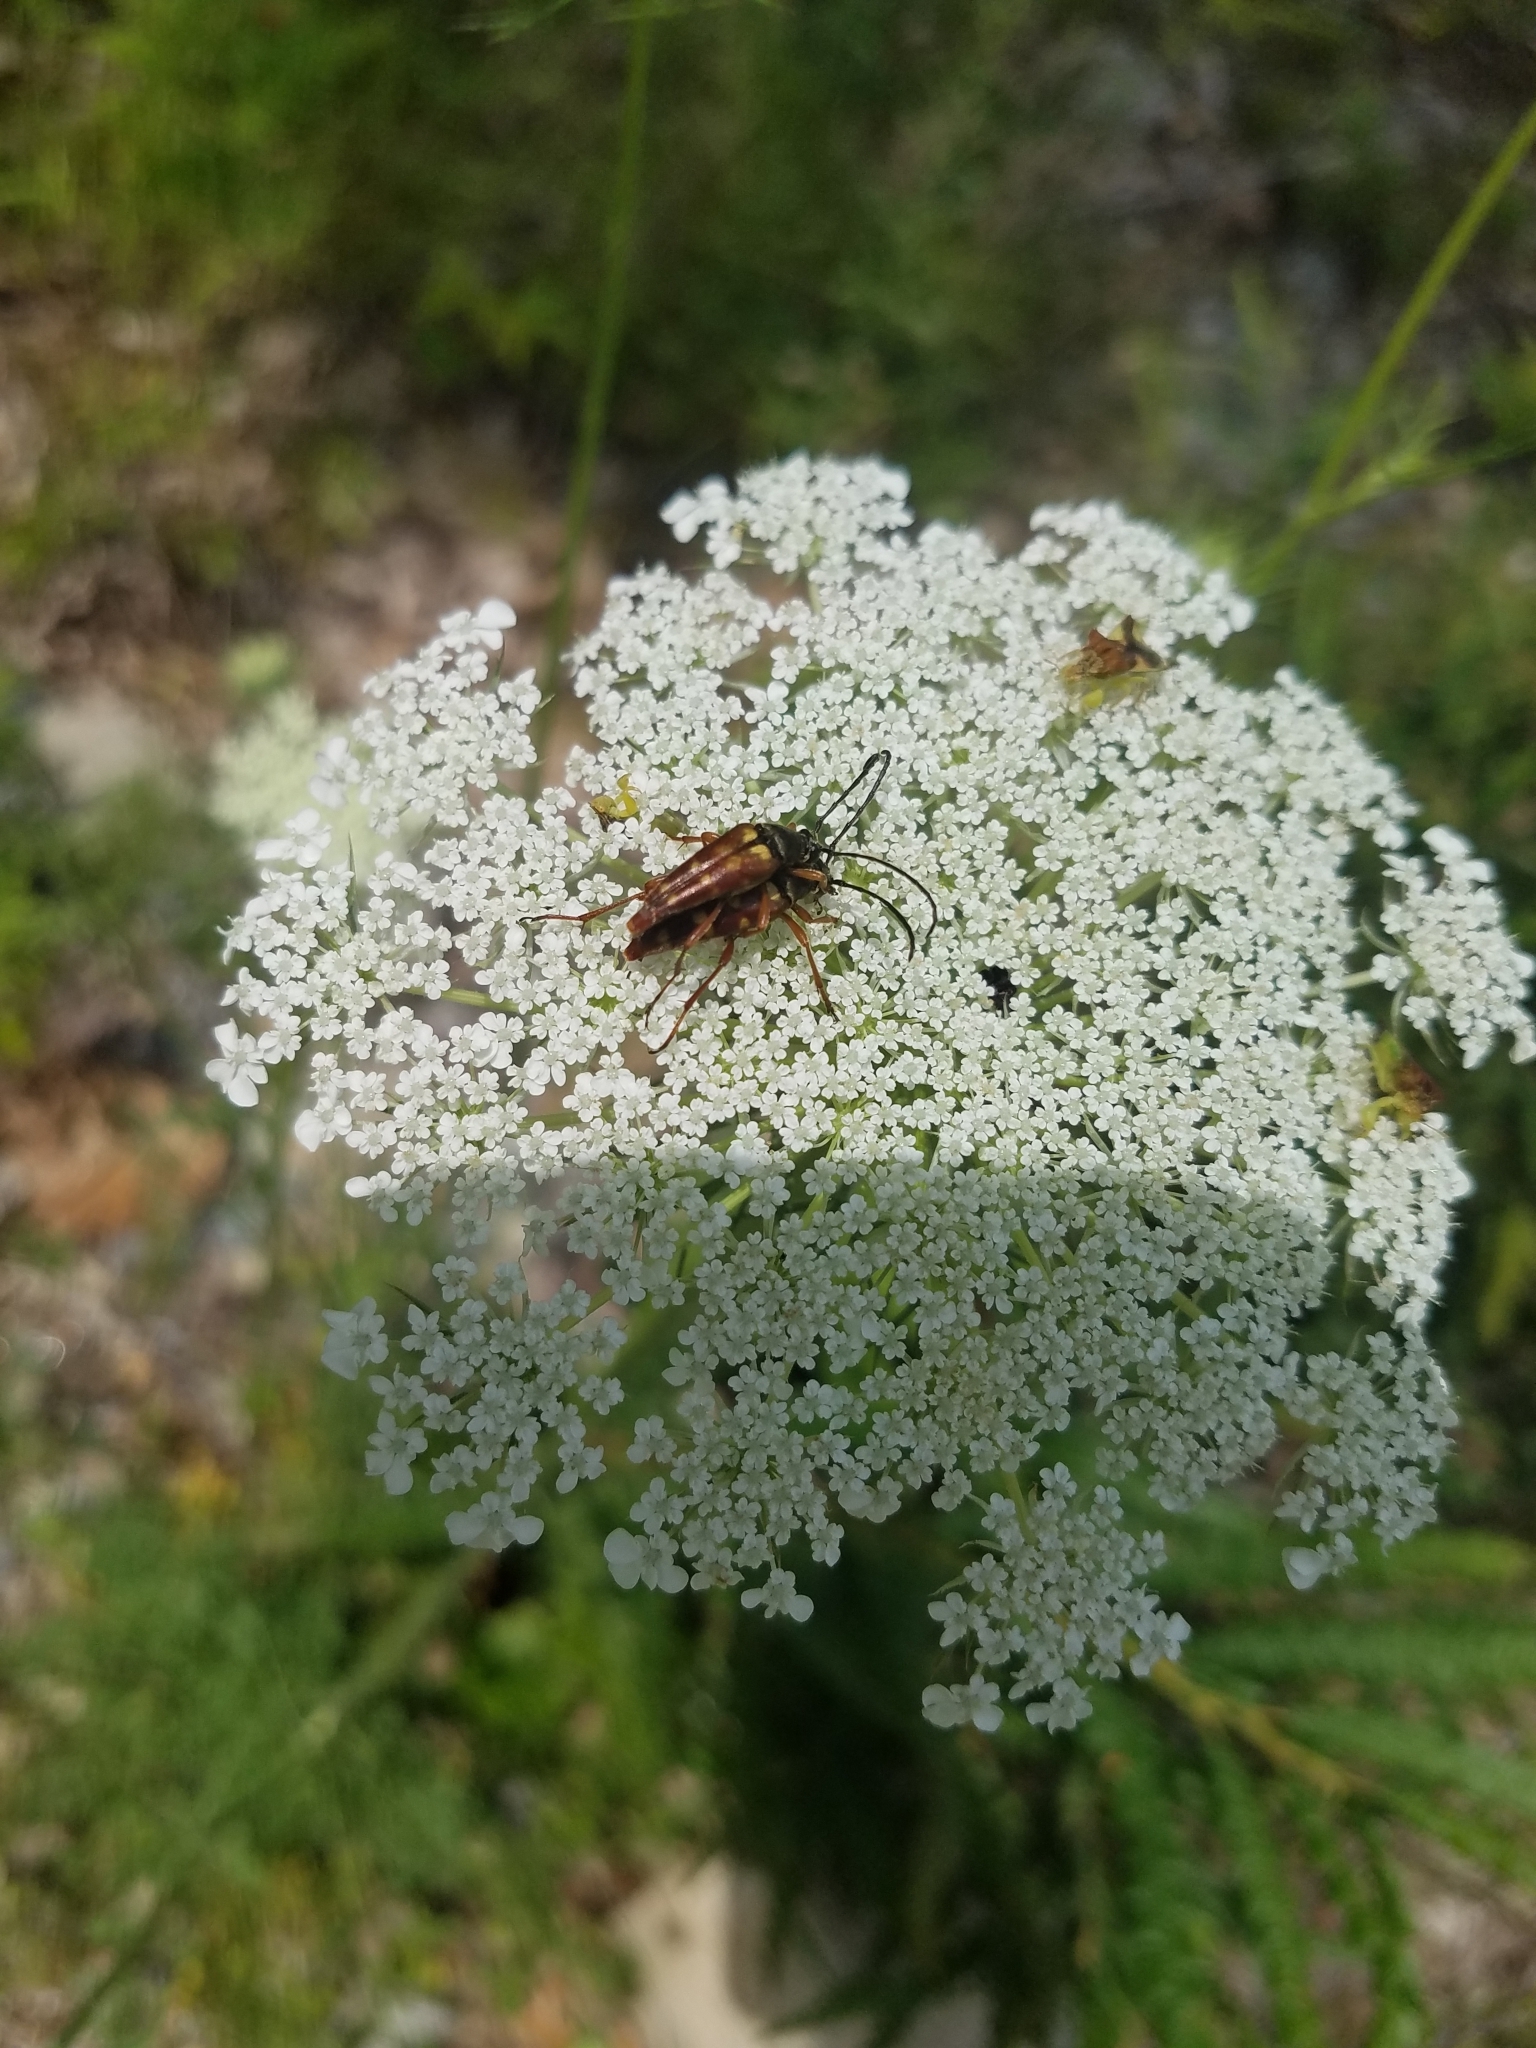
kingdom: Animalia
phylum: Arthropoda
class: Insecta
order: Coleoptera
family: Cerambycidae
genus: Typocerus
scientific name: Typocerus velutinus
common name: Banded longhorn beetle
